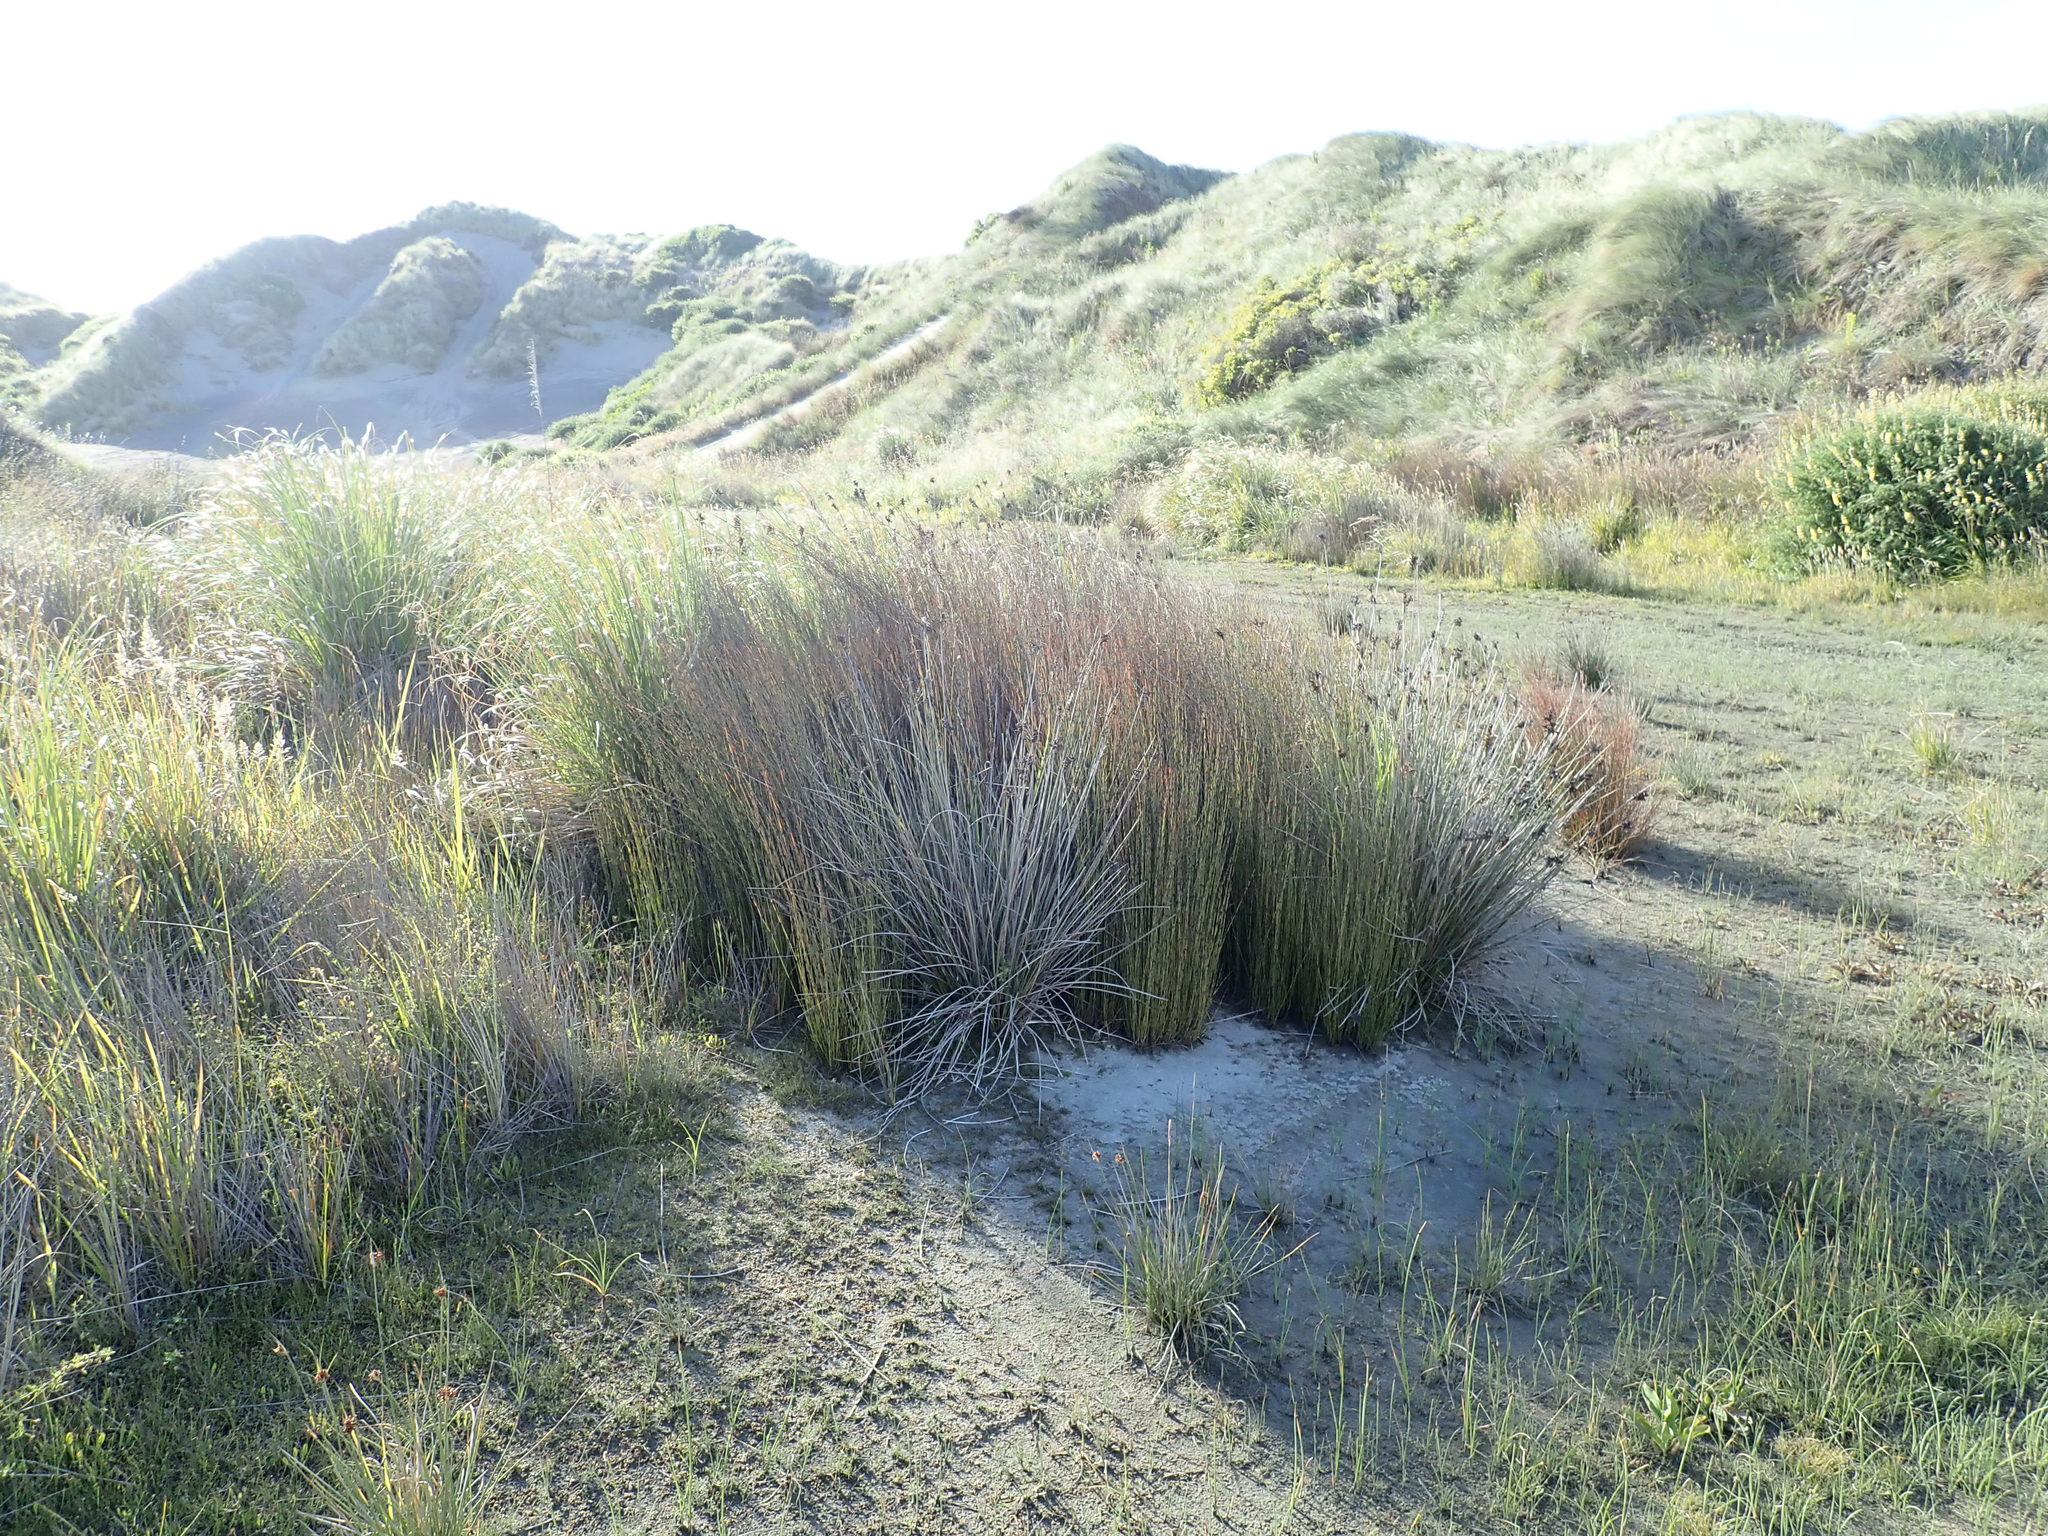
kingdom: Plantae
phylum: Tracheophyta
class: Liliopsida
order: Poales
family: Restionaceae
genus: Apodasmia
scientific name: Apodasmia similis
